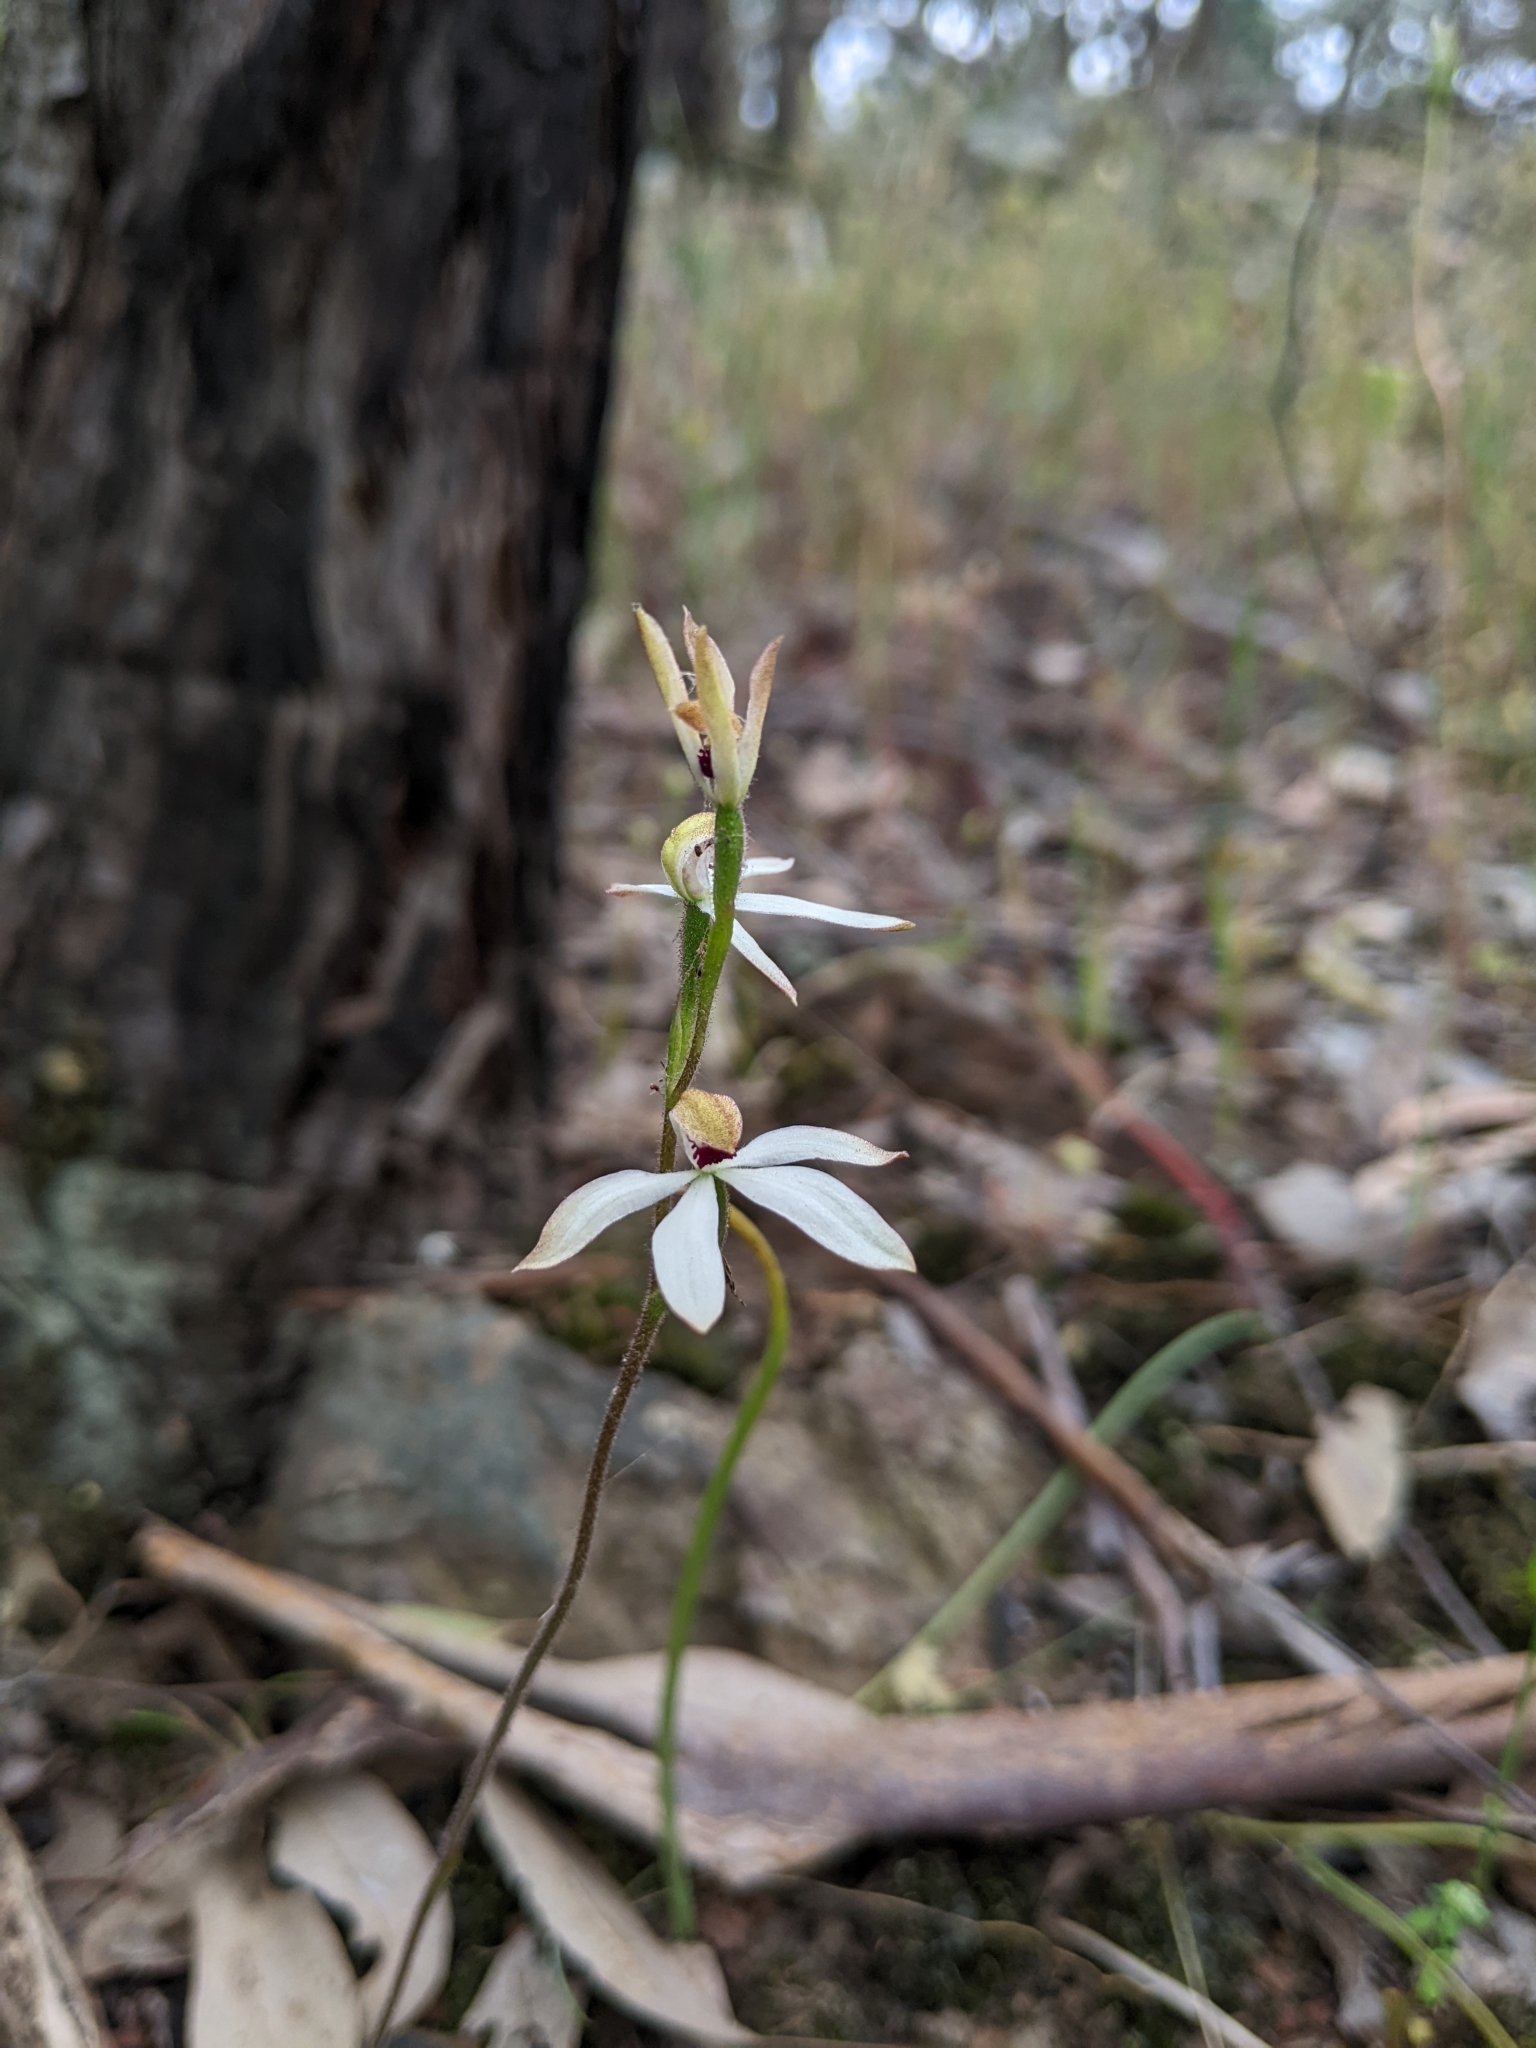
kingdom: Plantae
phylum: Tracheophyta
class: Liliopsida
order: Asparagales
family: Orchidaceae
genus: Caladenia
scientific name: Caladenia cucullata
